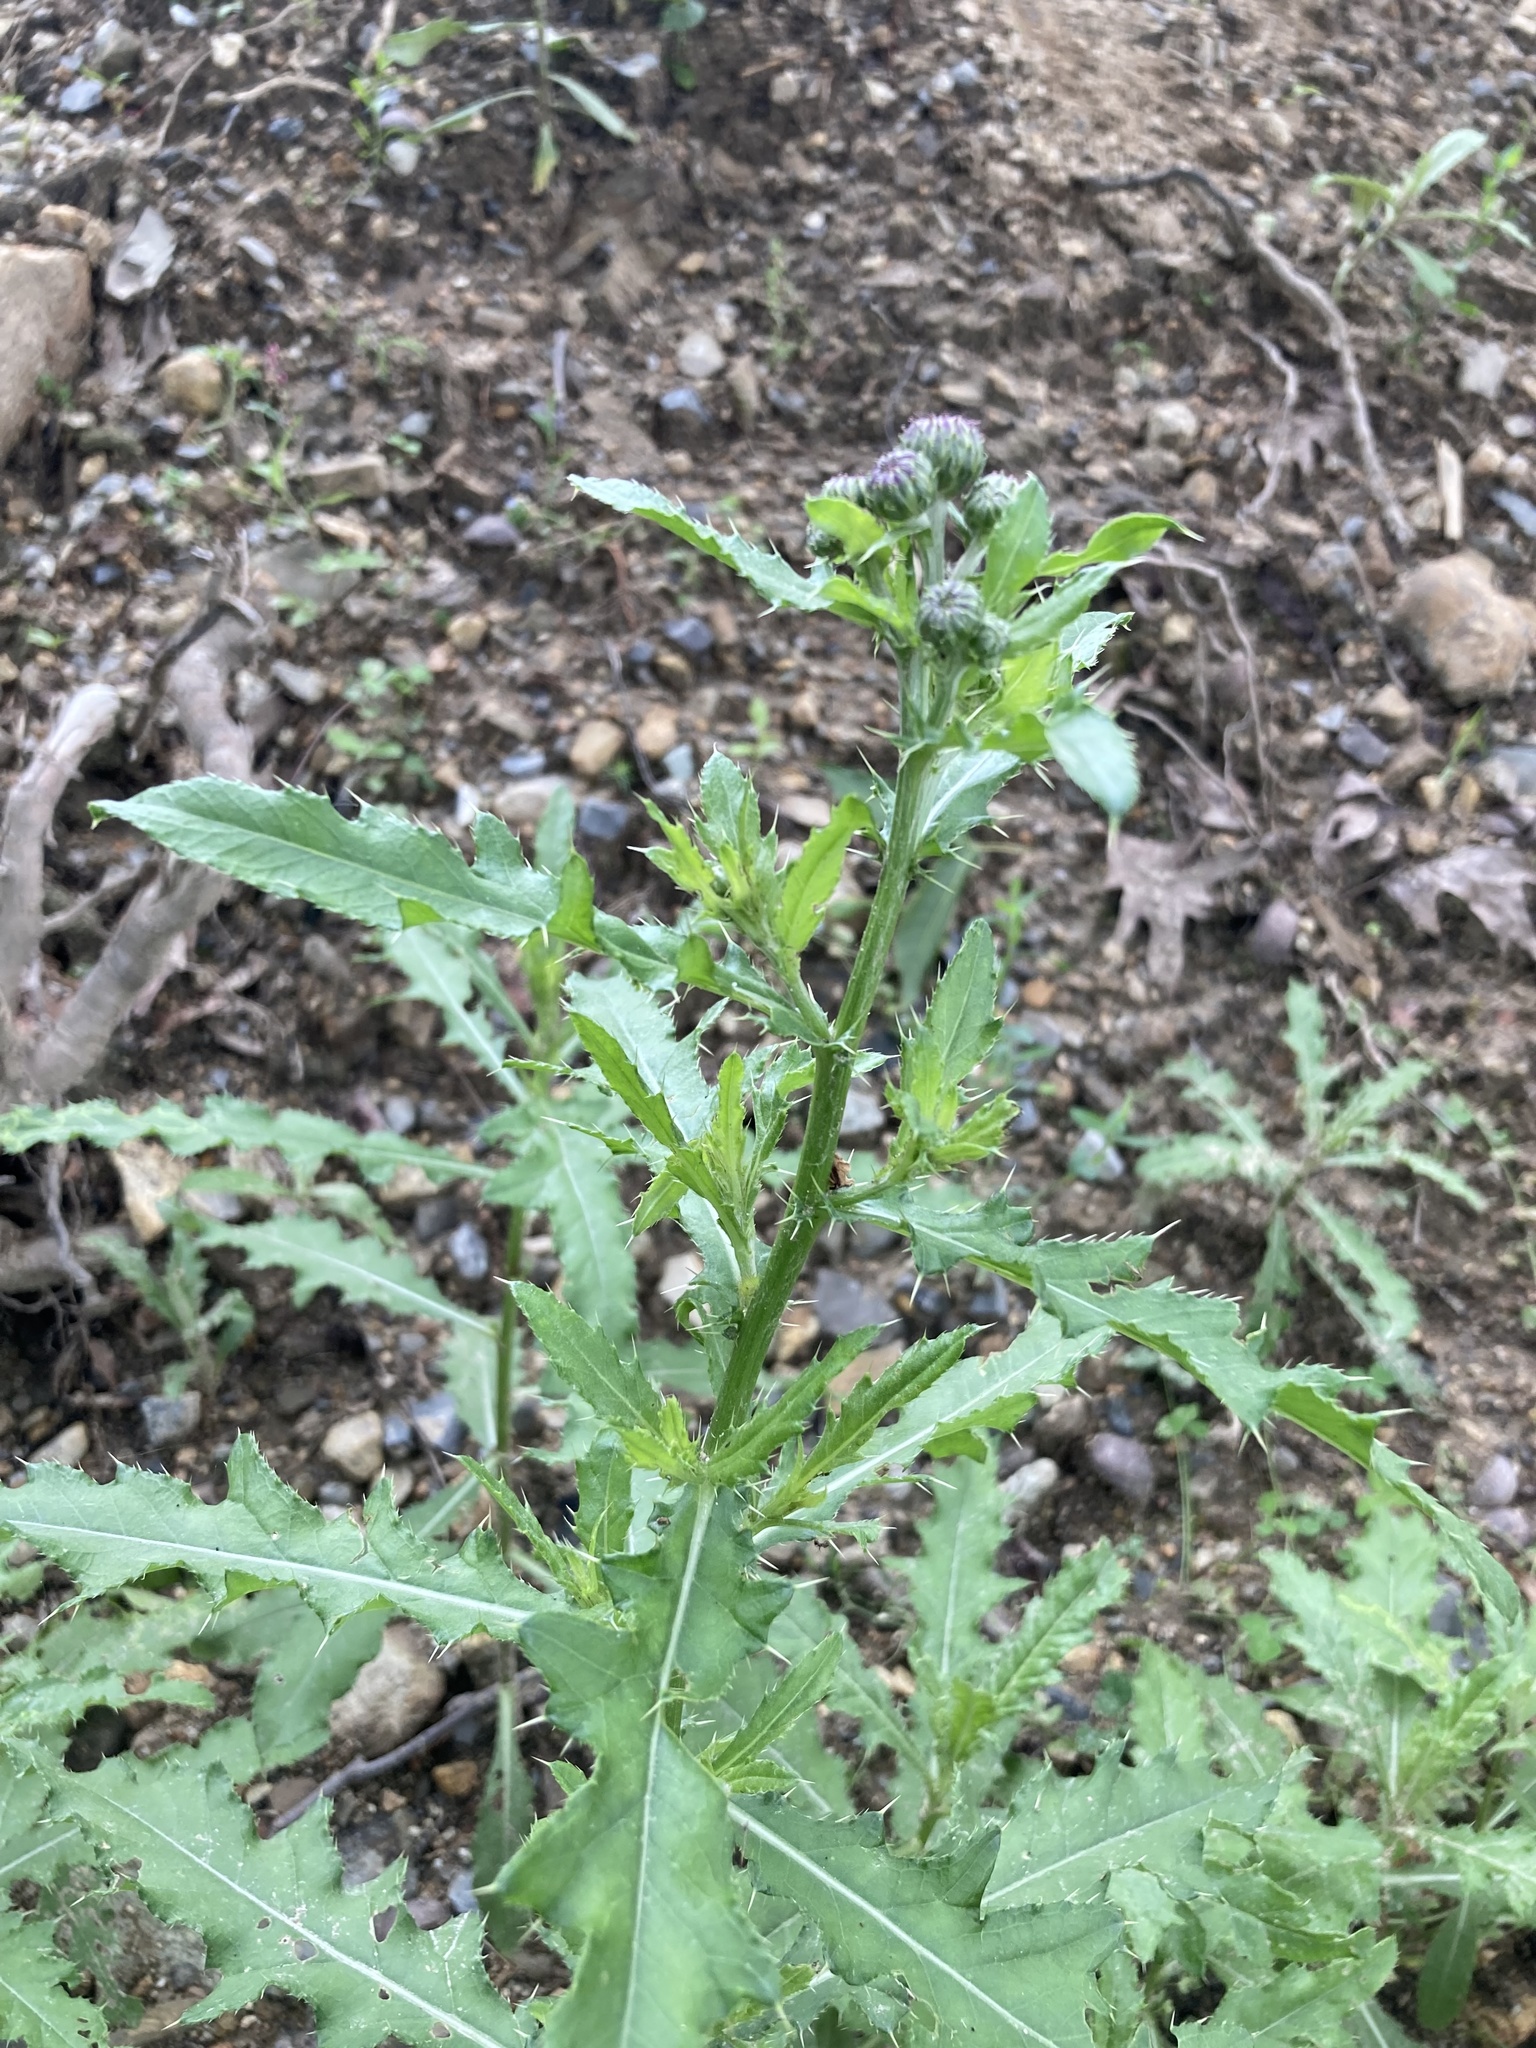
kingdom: Plantae
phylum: Tracheophyta
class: Magnoliopsida
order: Asterales
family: Asteraceae
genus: Cirsium
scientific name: Cirsium arvense
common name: Creeping thistle
